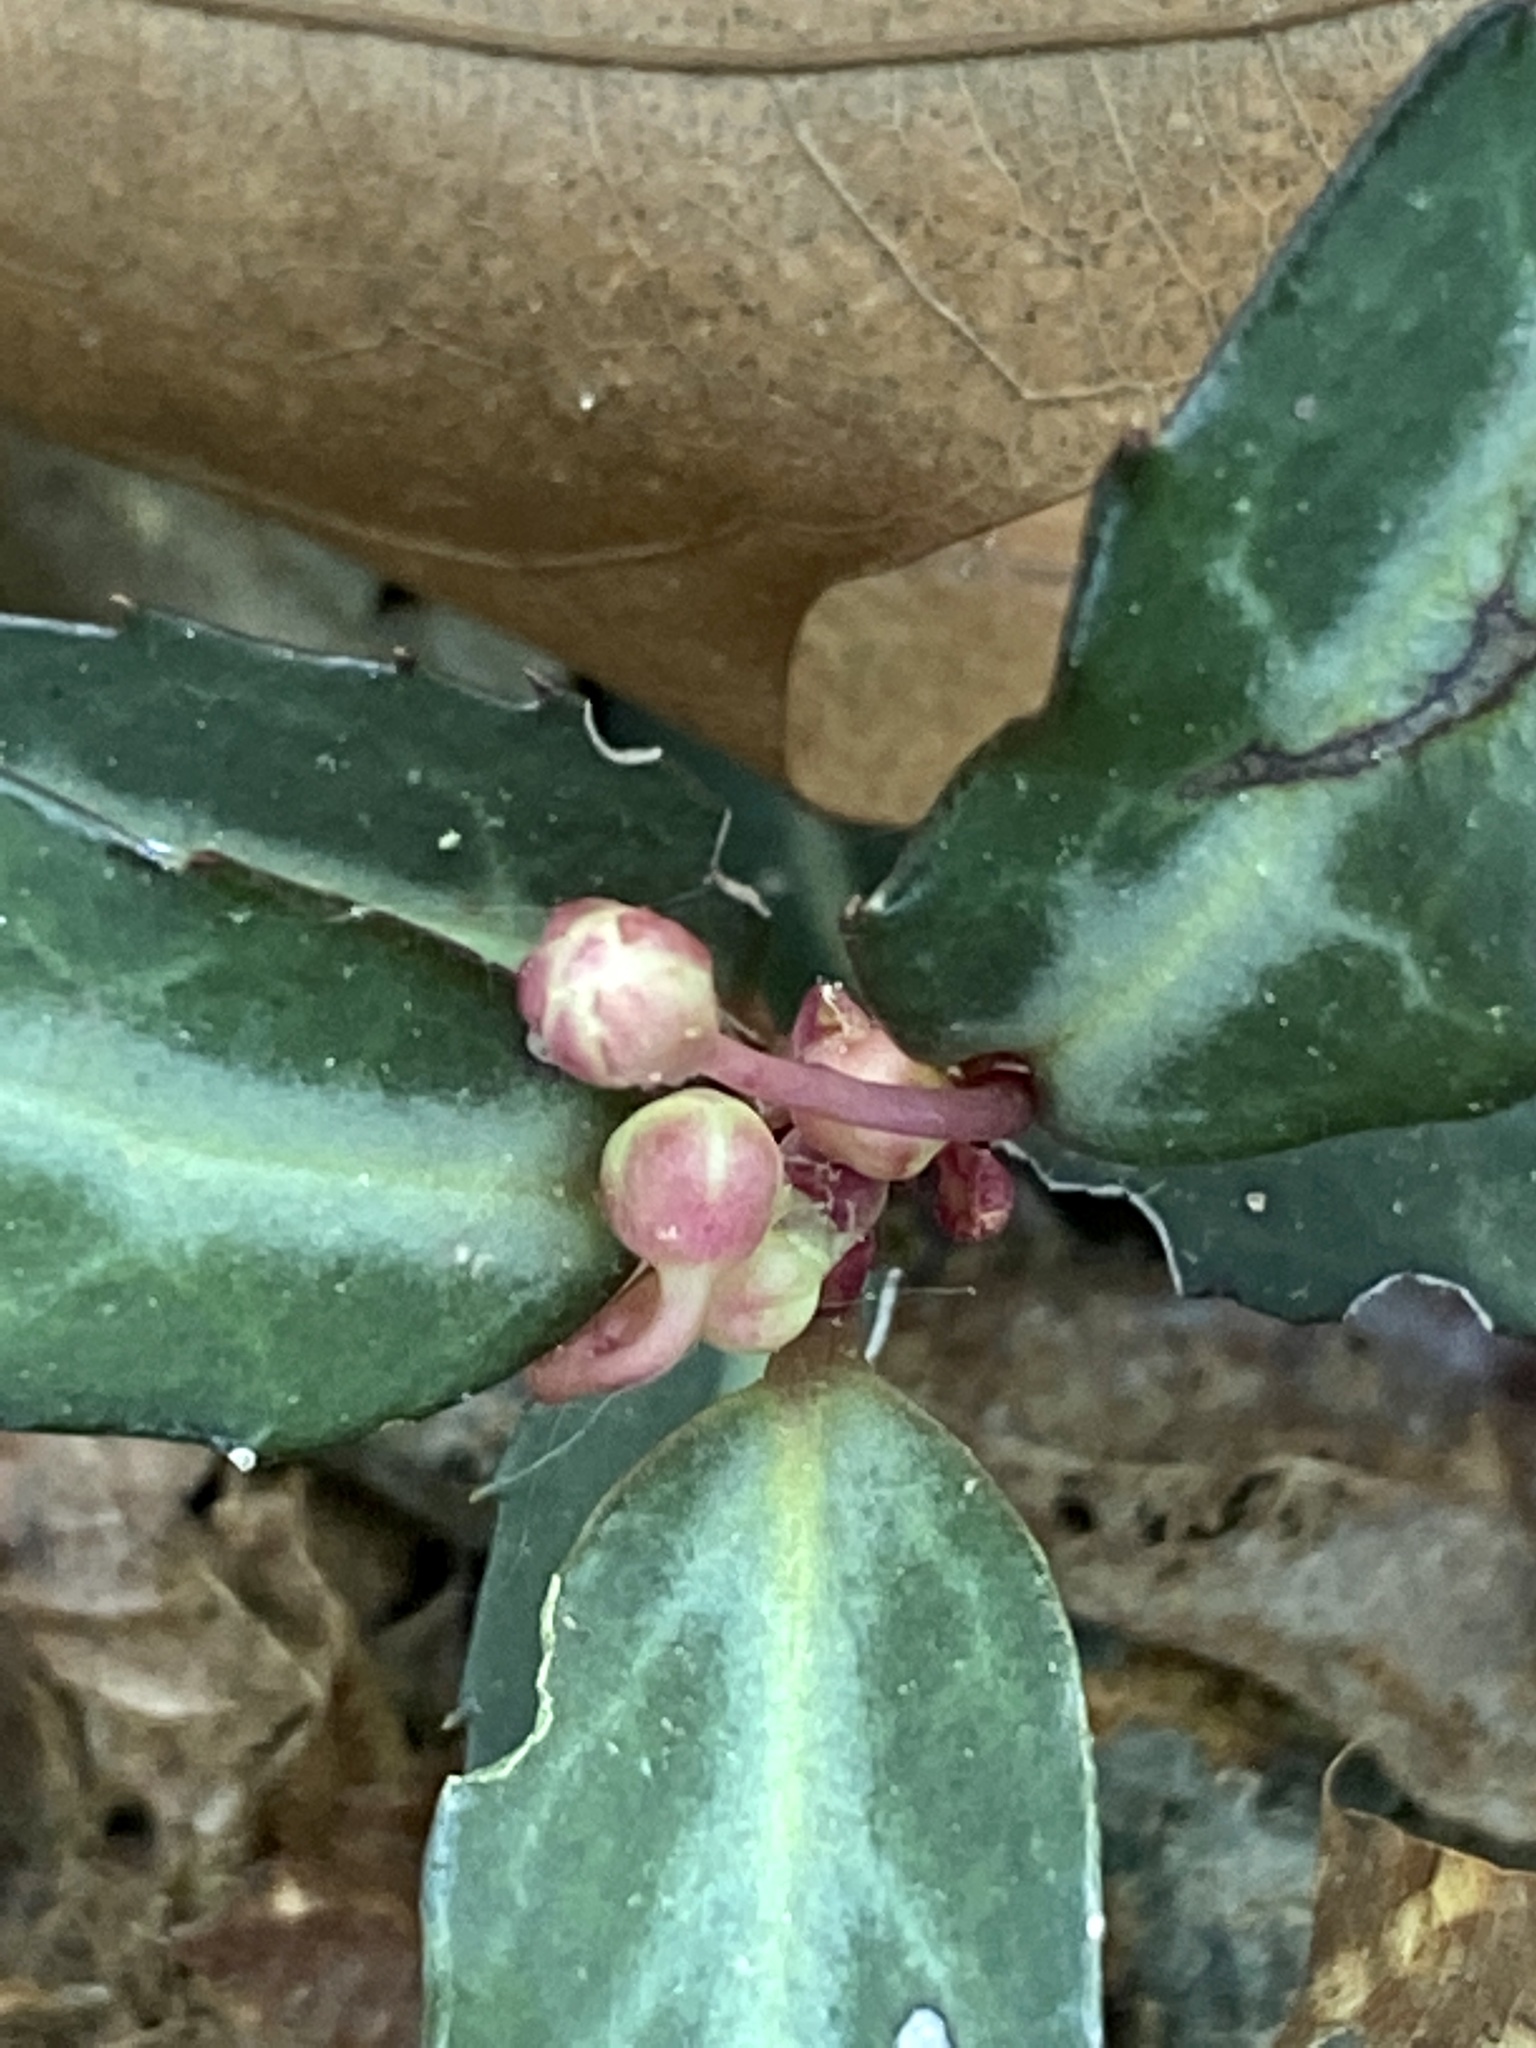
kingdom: Plantae
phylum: Tracheophyta
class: Magnoliopsida
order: Ericales
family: Ericaceae
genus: Chimaphila
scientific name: Chimaphila maculata
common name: Spotted pipsissewa
